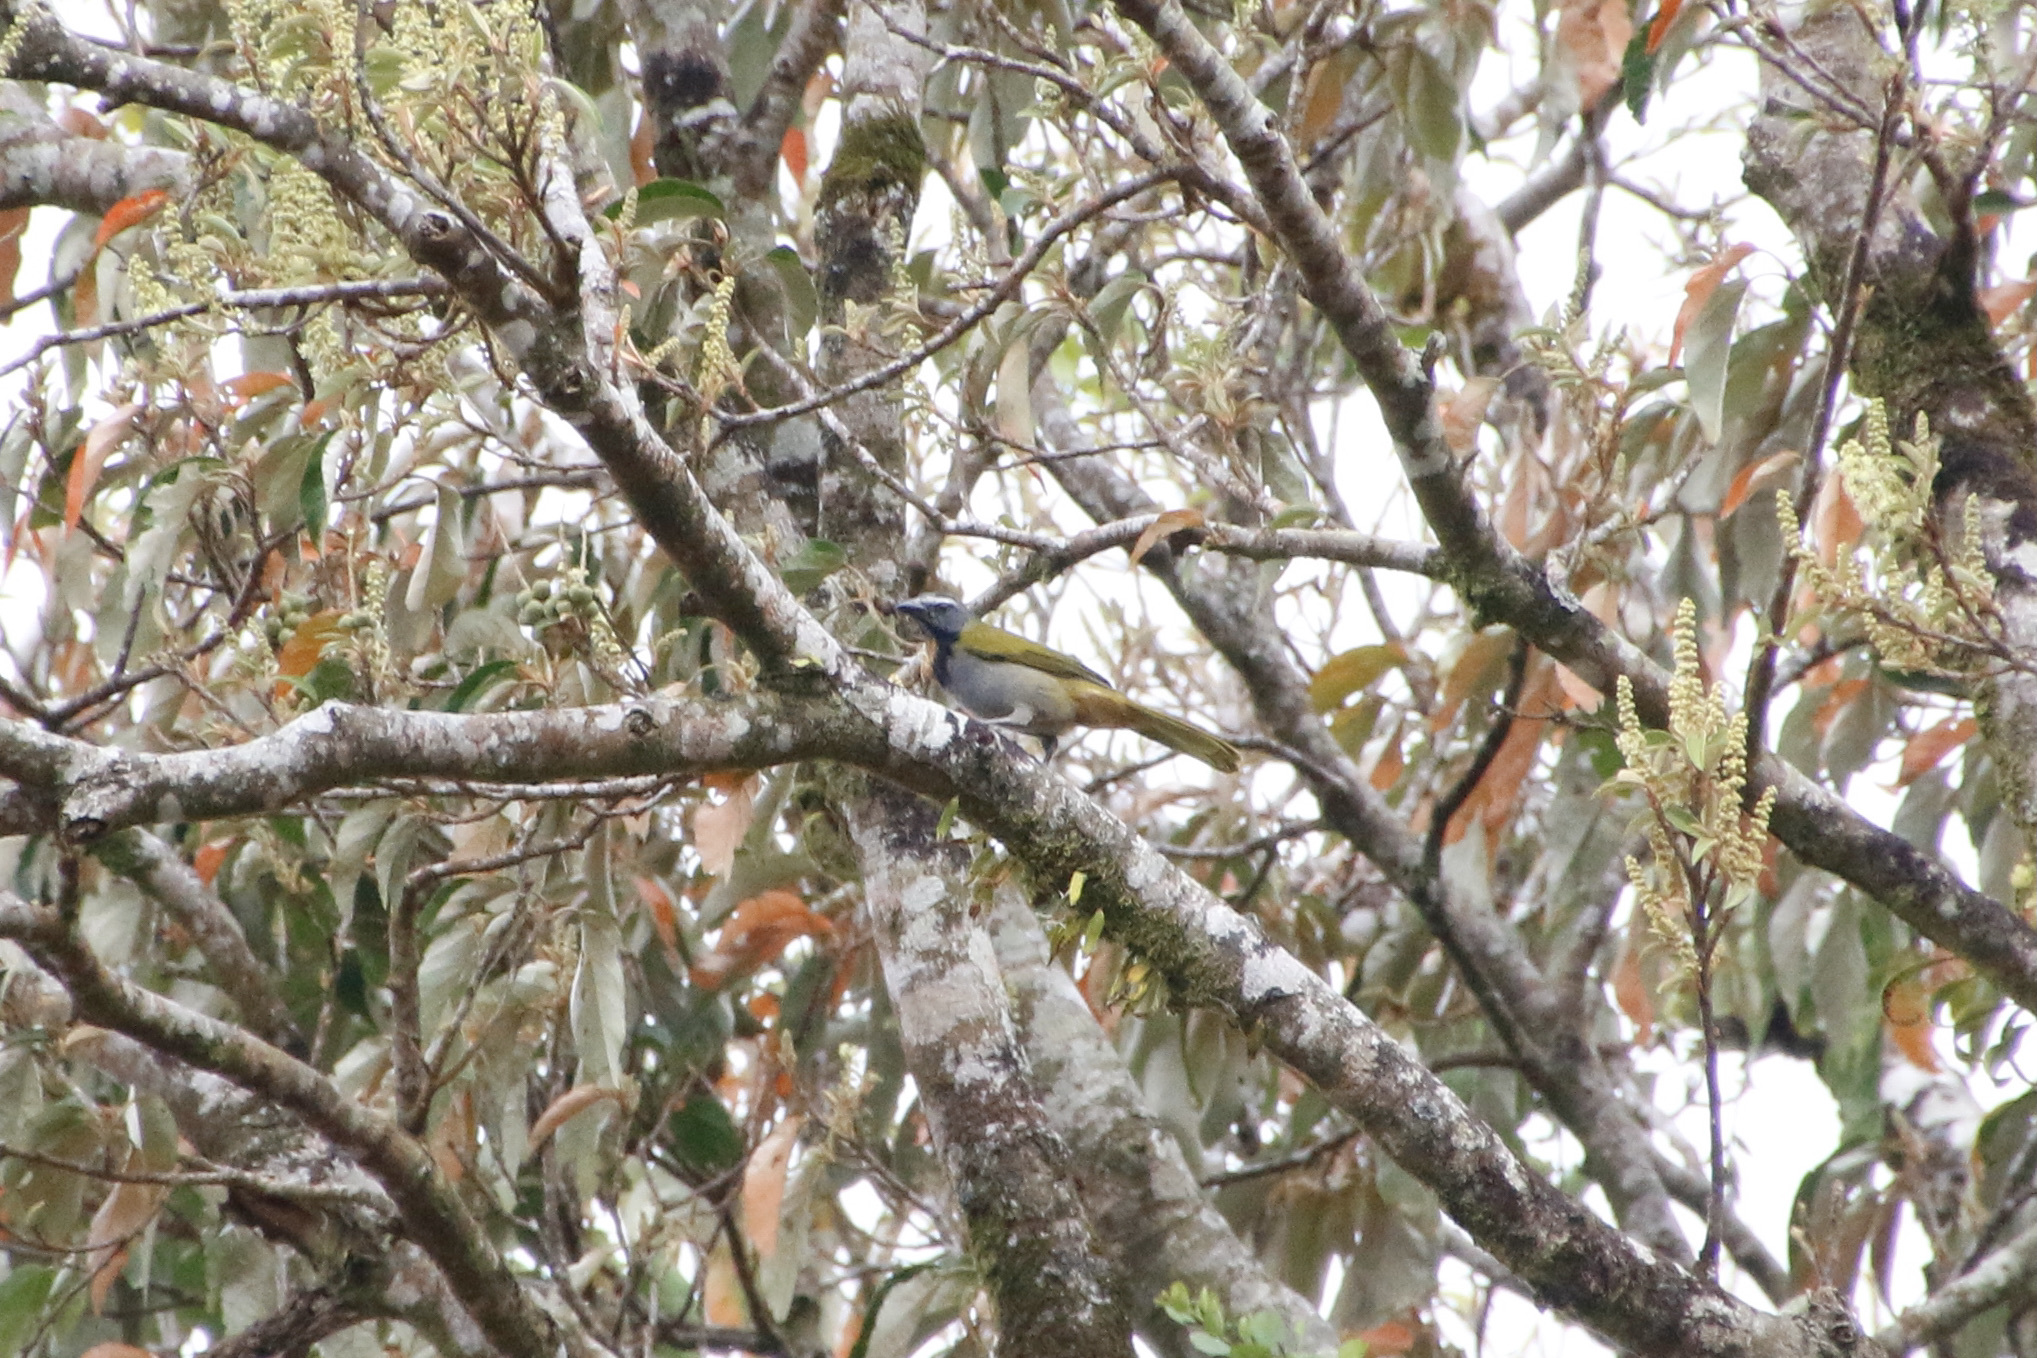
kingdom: Animalia
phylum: Chordata
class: Aves
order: Passeriformes
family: Thraupidae
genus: Saltator
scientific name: Saltator maximus
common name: Buff-throated saltator
